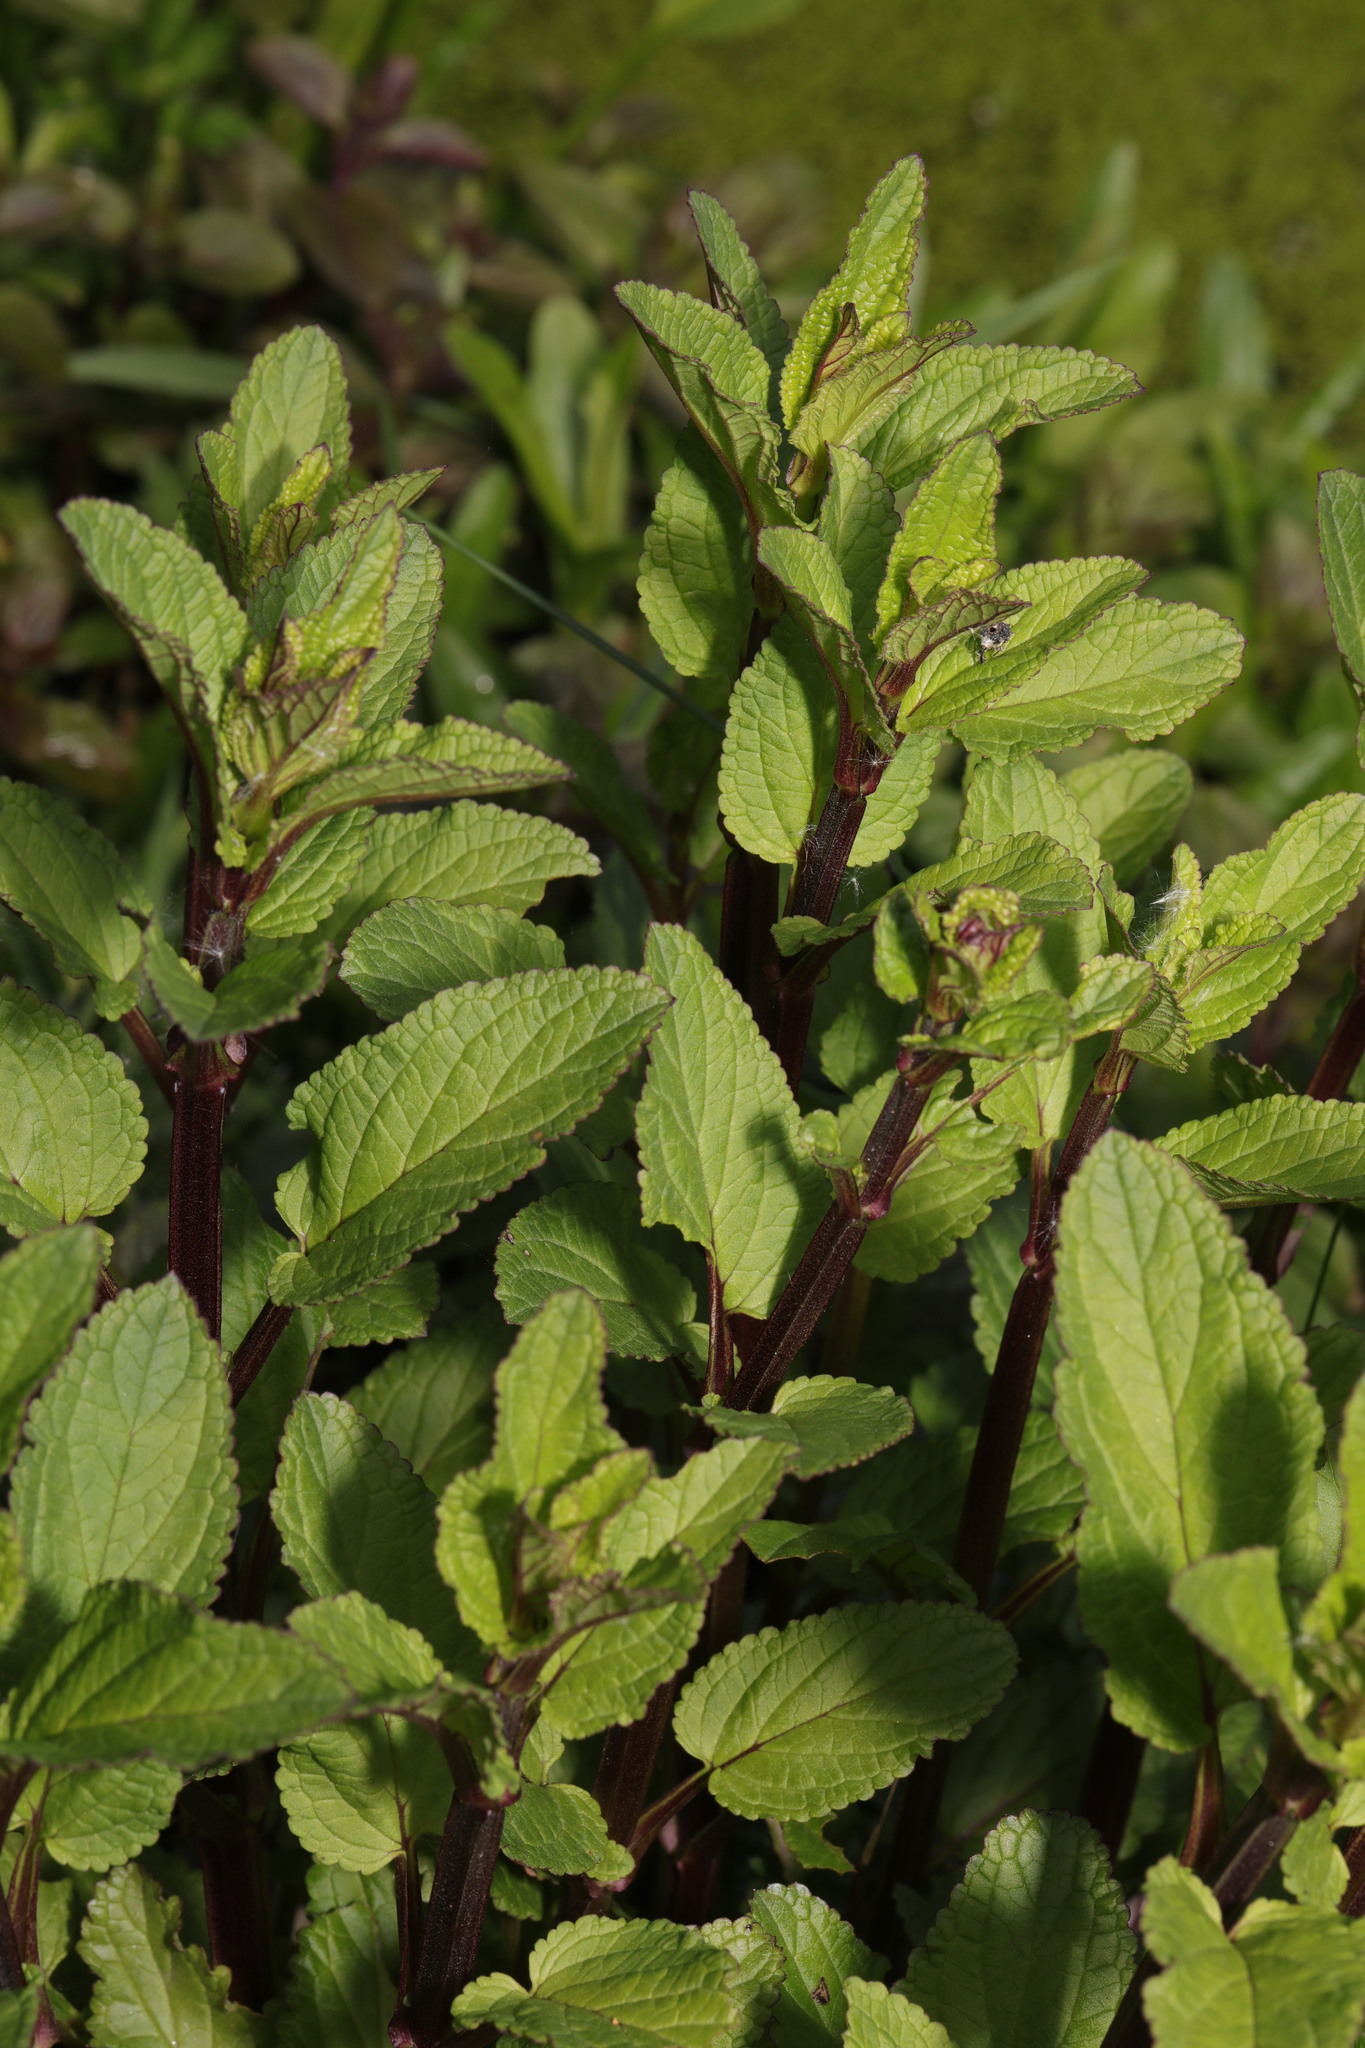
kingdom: Plantae
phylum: Tracheophyta
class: Magnoliopsida
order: Lamiales
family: Scrophulariaceae
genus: Scrophularia
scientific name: Scrophularia auriculata
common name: Water betony
